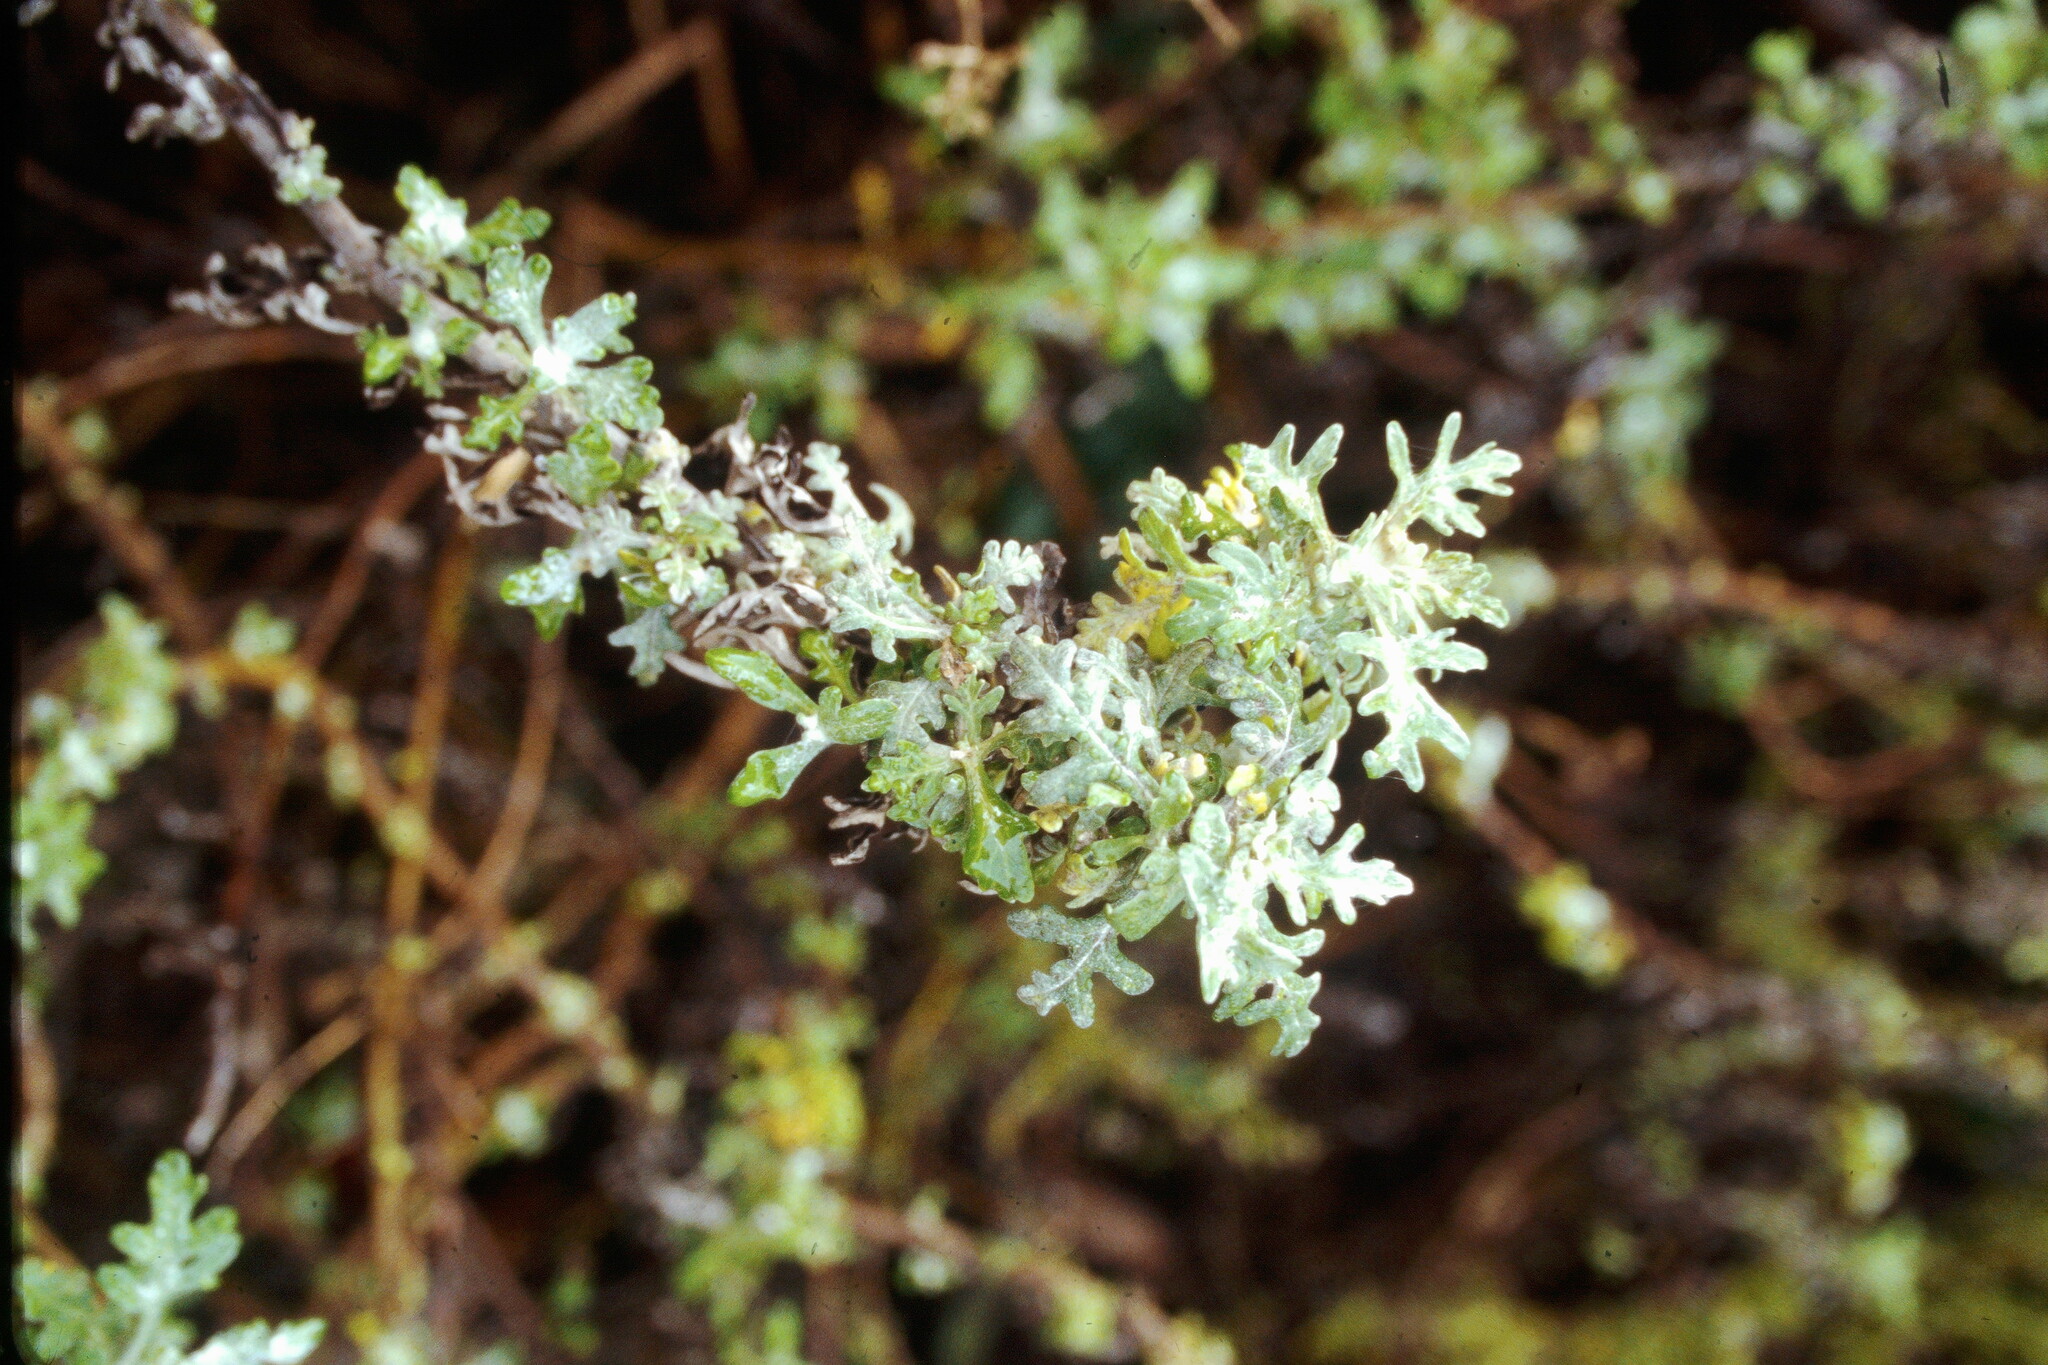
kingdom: Plantae
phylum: Tracheophyta
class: Magnoliopsida
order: Asterales
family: Asteraceae
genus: Eriophyllum
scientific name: Eriophyllum staechadifolium
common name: Lizardtail
